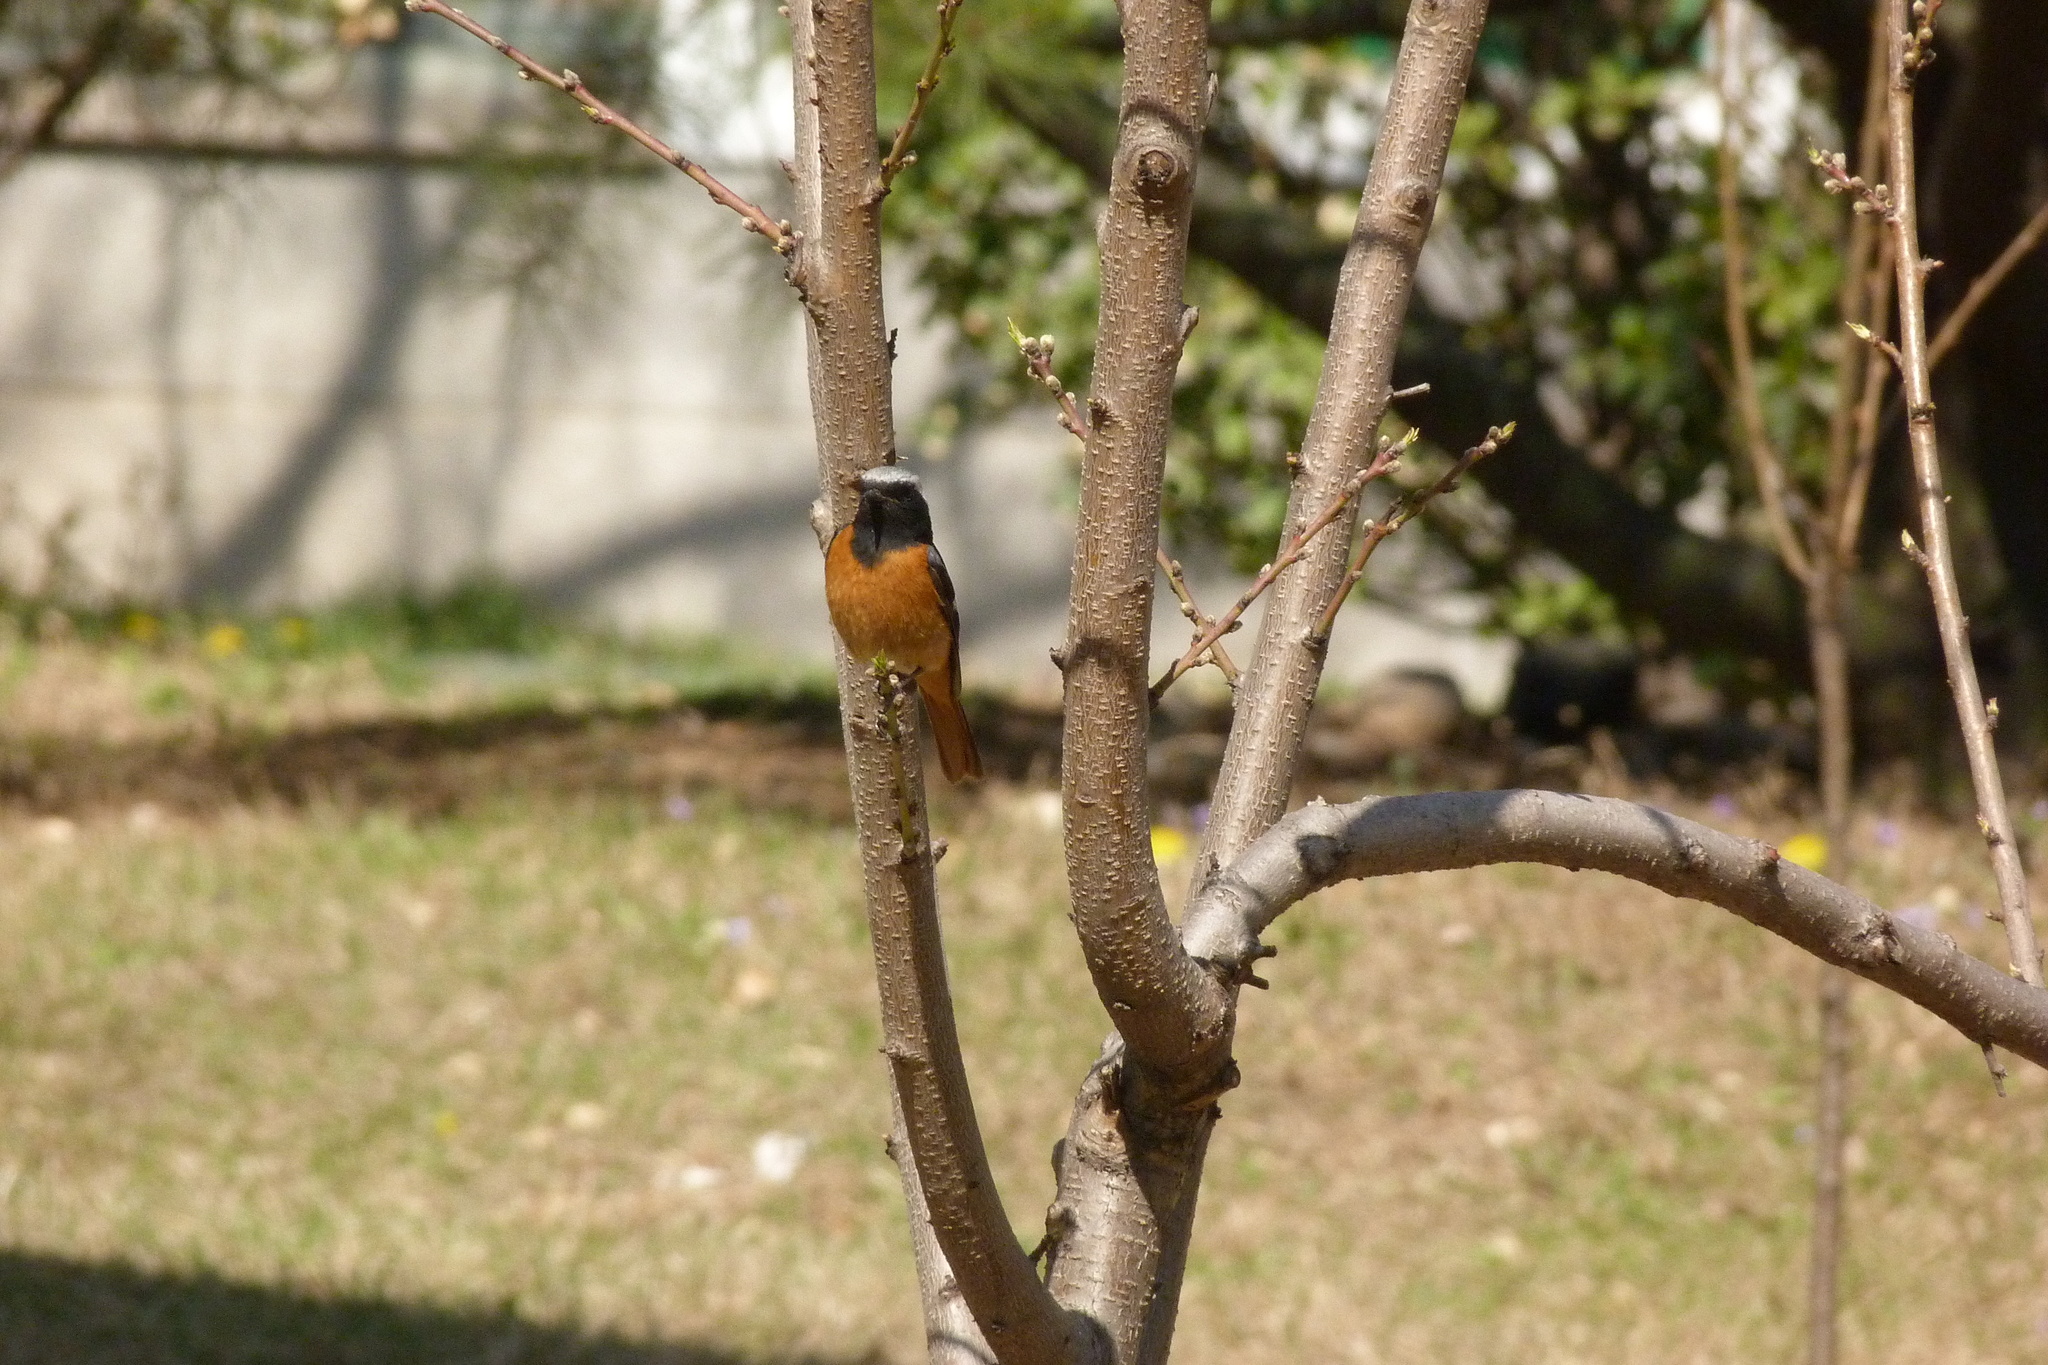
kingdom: Animalia
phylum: Chordata
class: Aves
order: Passeriformes
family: Muscicapidae
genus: Phoenicurus
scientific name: Phoenicurus auroreus
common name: Daurian redstart
